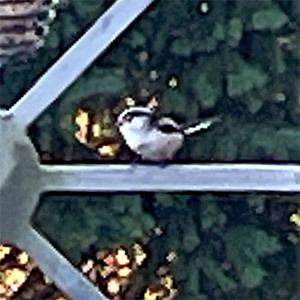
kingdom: Animalia
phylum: Chordata
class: Aves
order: Passeriformes
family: Aegithalidae
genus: Aegithalos
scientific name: Aegithalos caudatus
